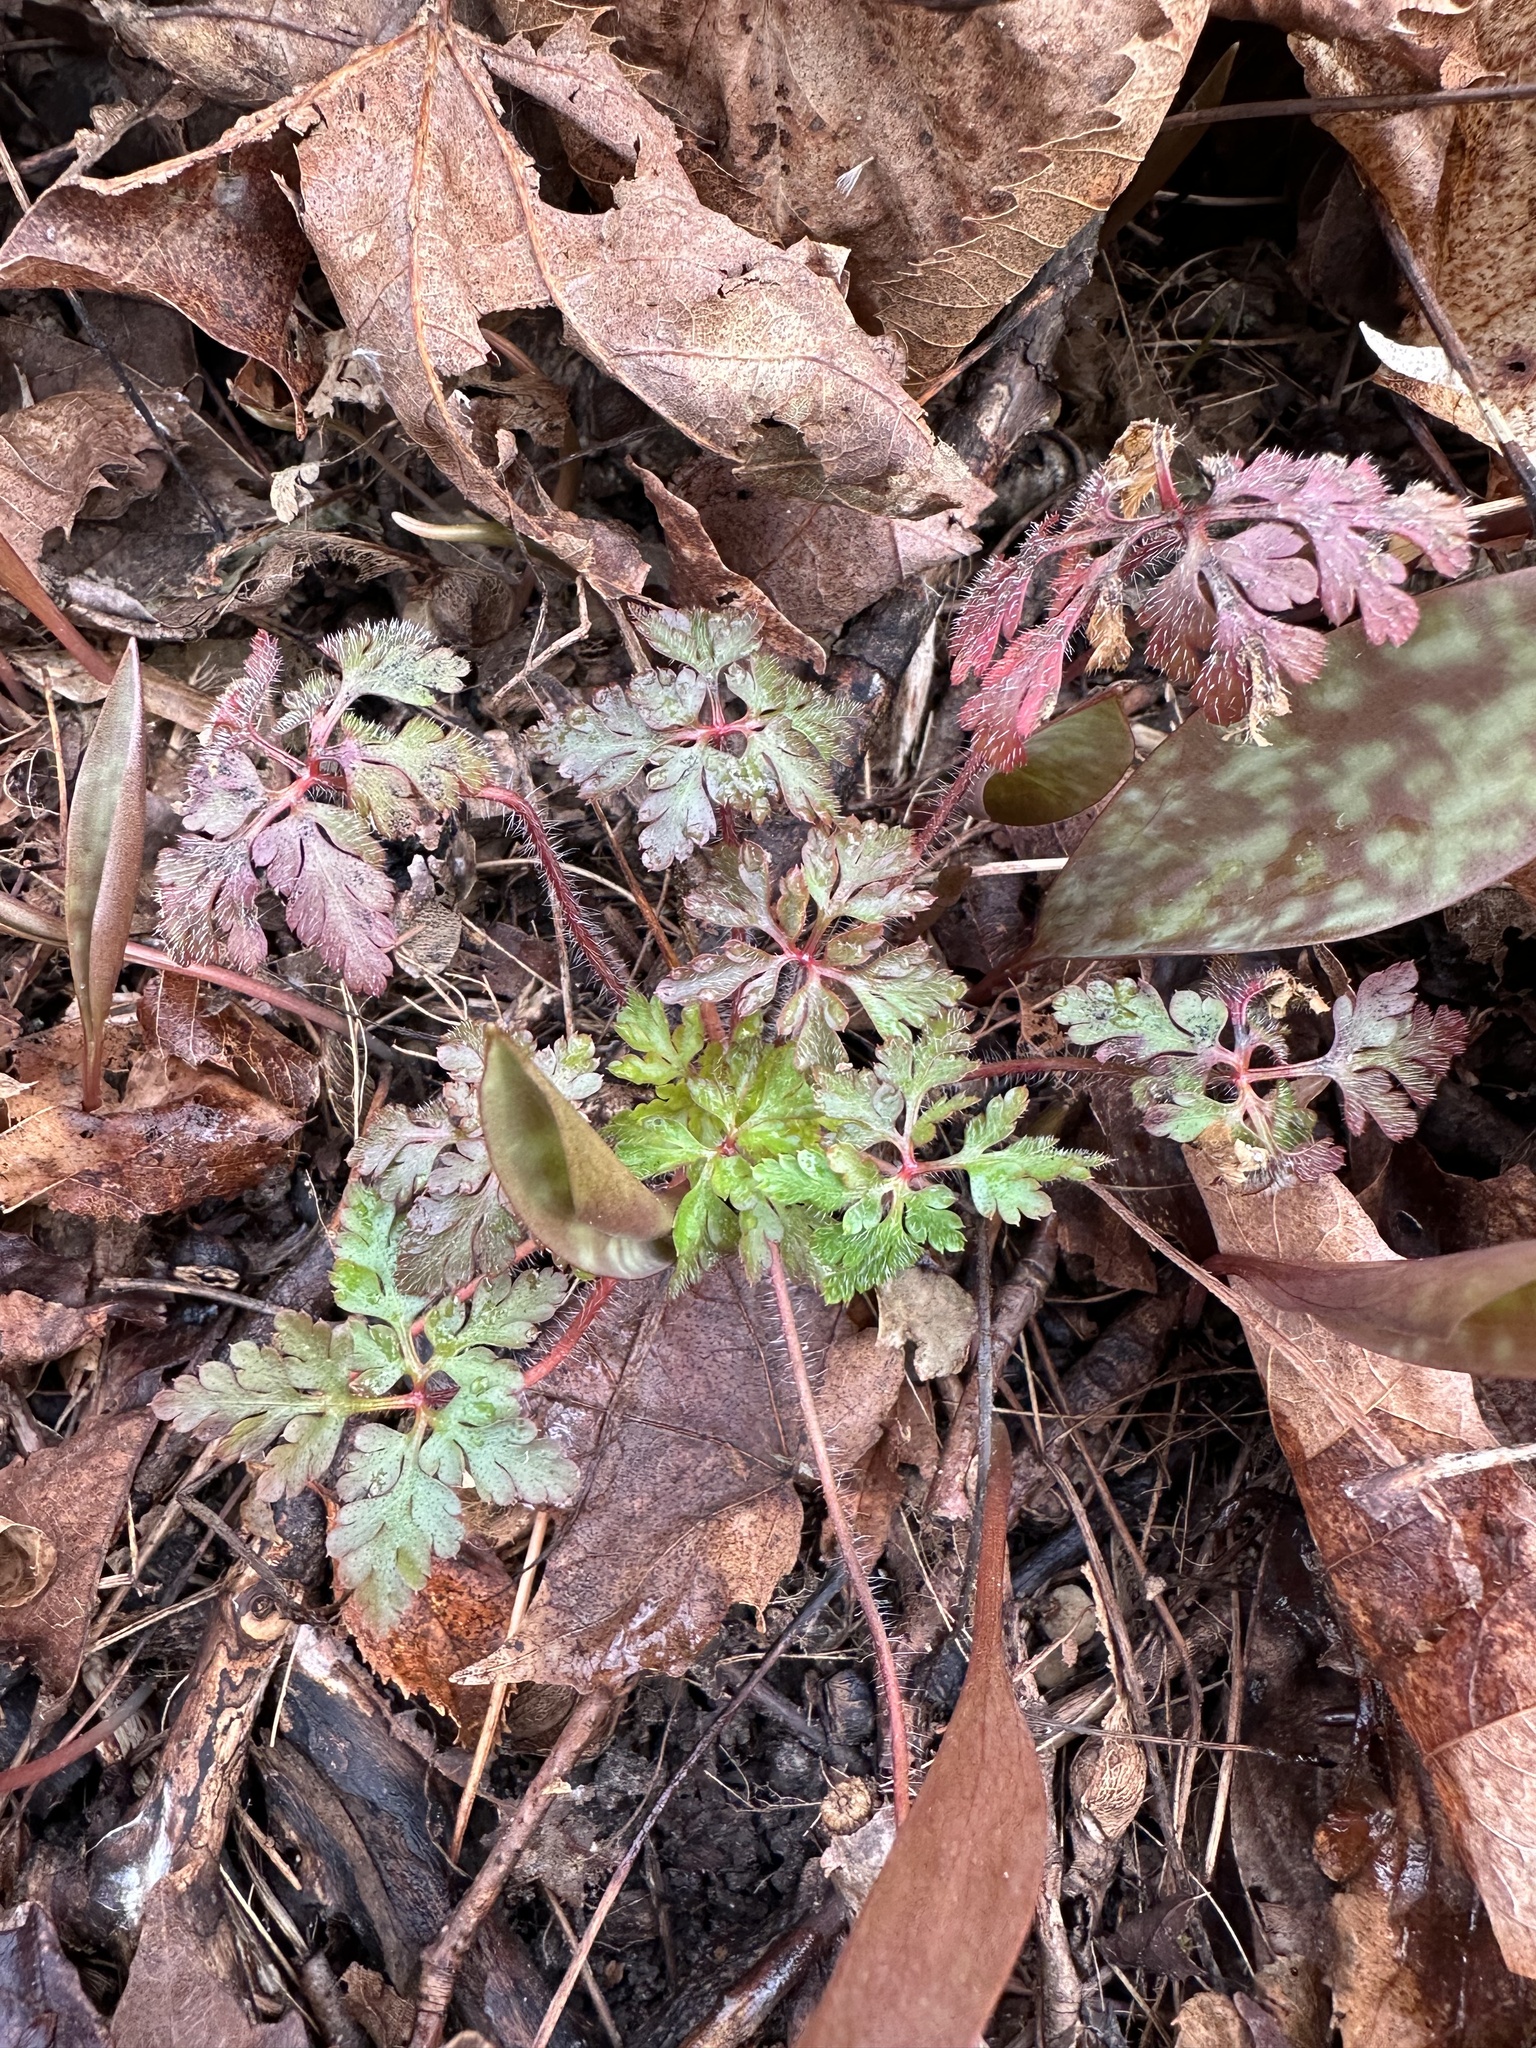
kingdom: Plantae
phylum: Tracheophyta
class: Magnoliopsida
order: Geraniales
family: Geraniaceae
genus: Geranium
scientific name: Geranium robertianum
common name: Herb-robert
